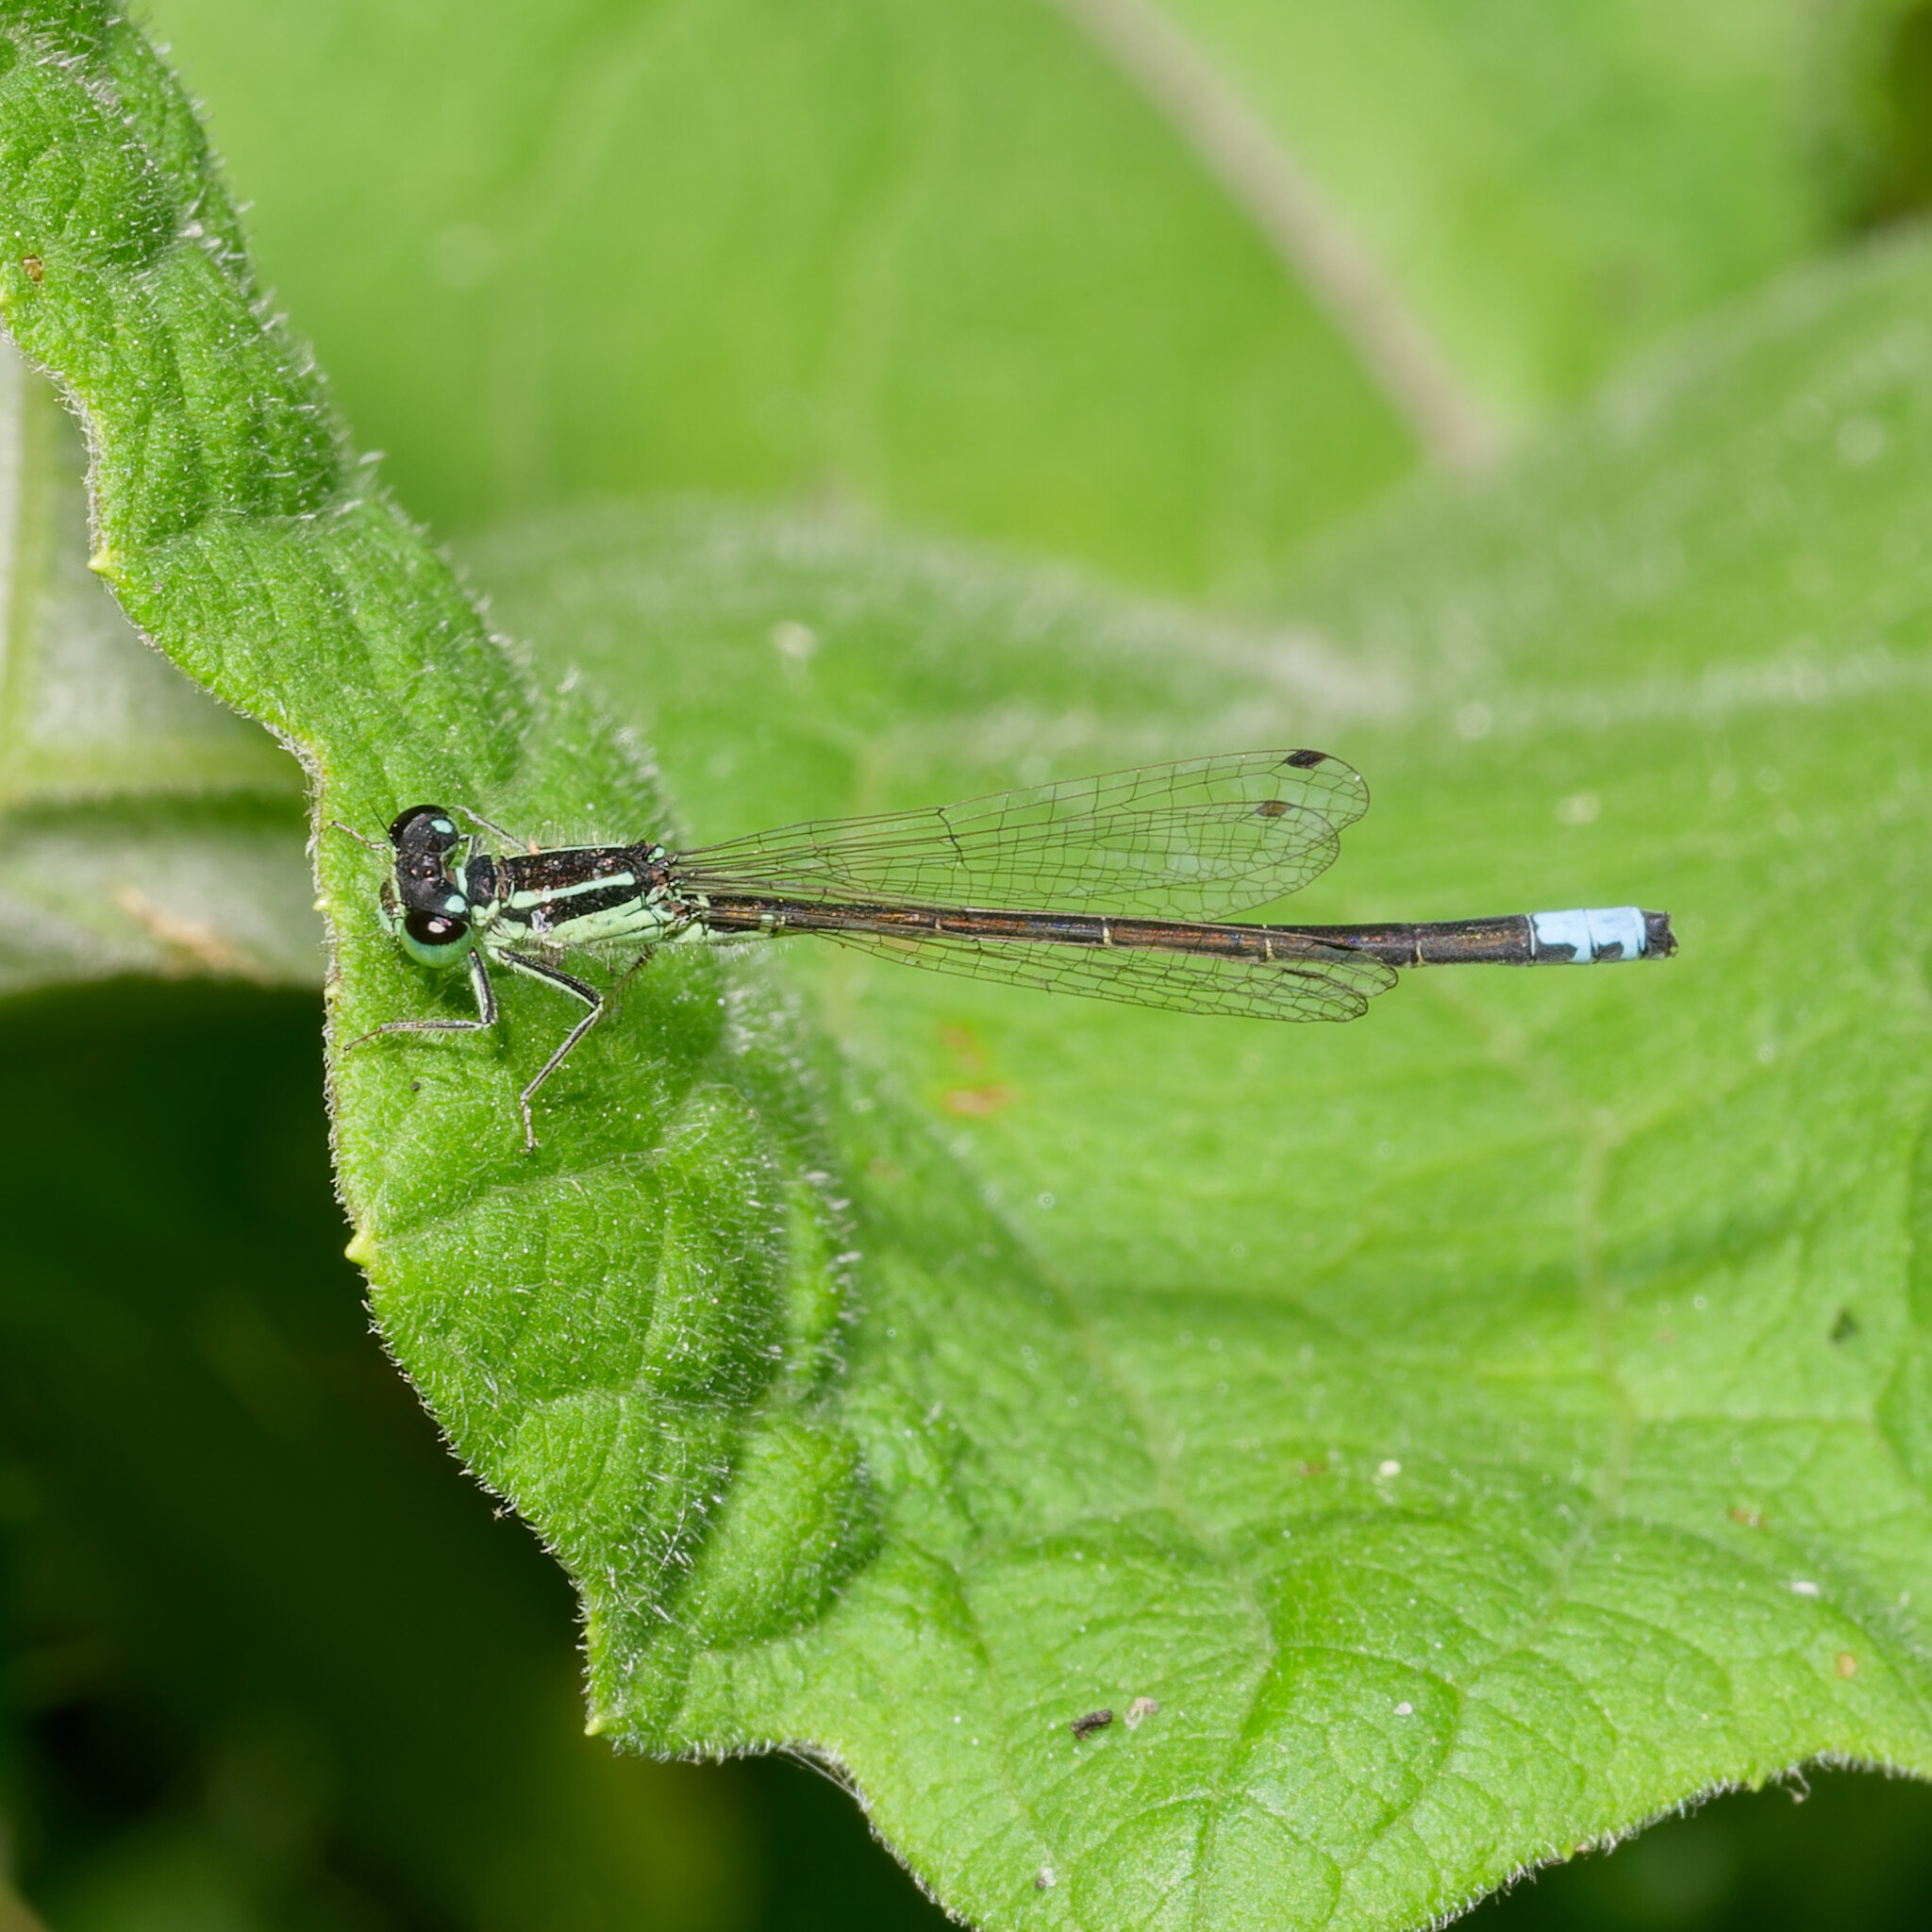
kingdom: Animalia
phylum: Arthropoda
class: Insecta
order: Odonata
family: Coenagrionidae
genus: Ischnura
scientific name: Ischnura verticalis
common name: Eastern forktail
